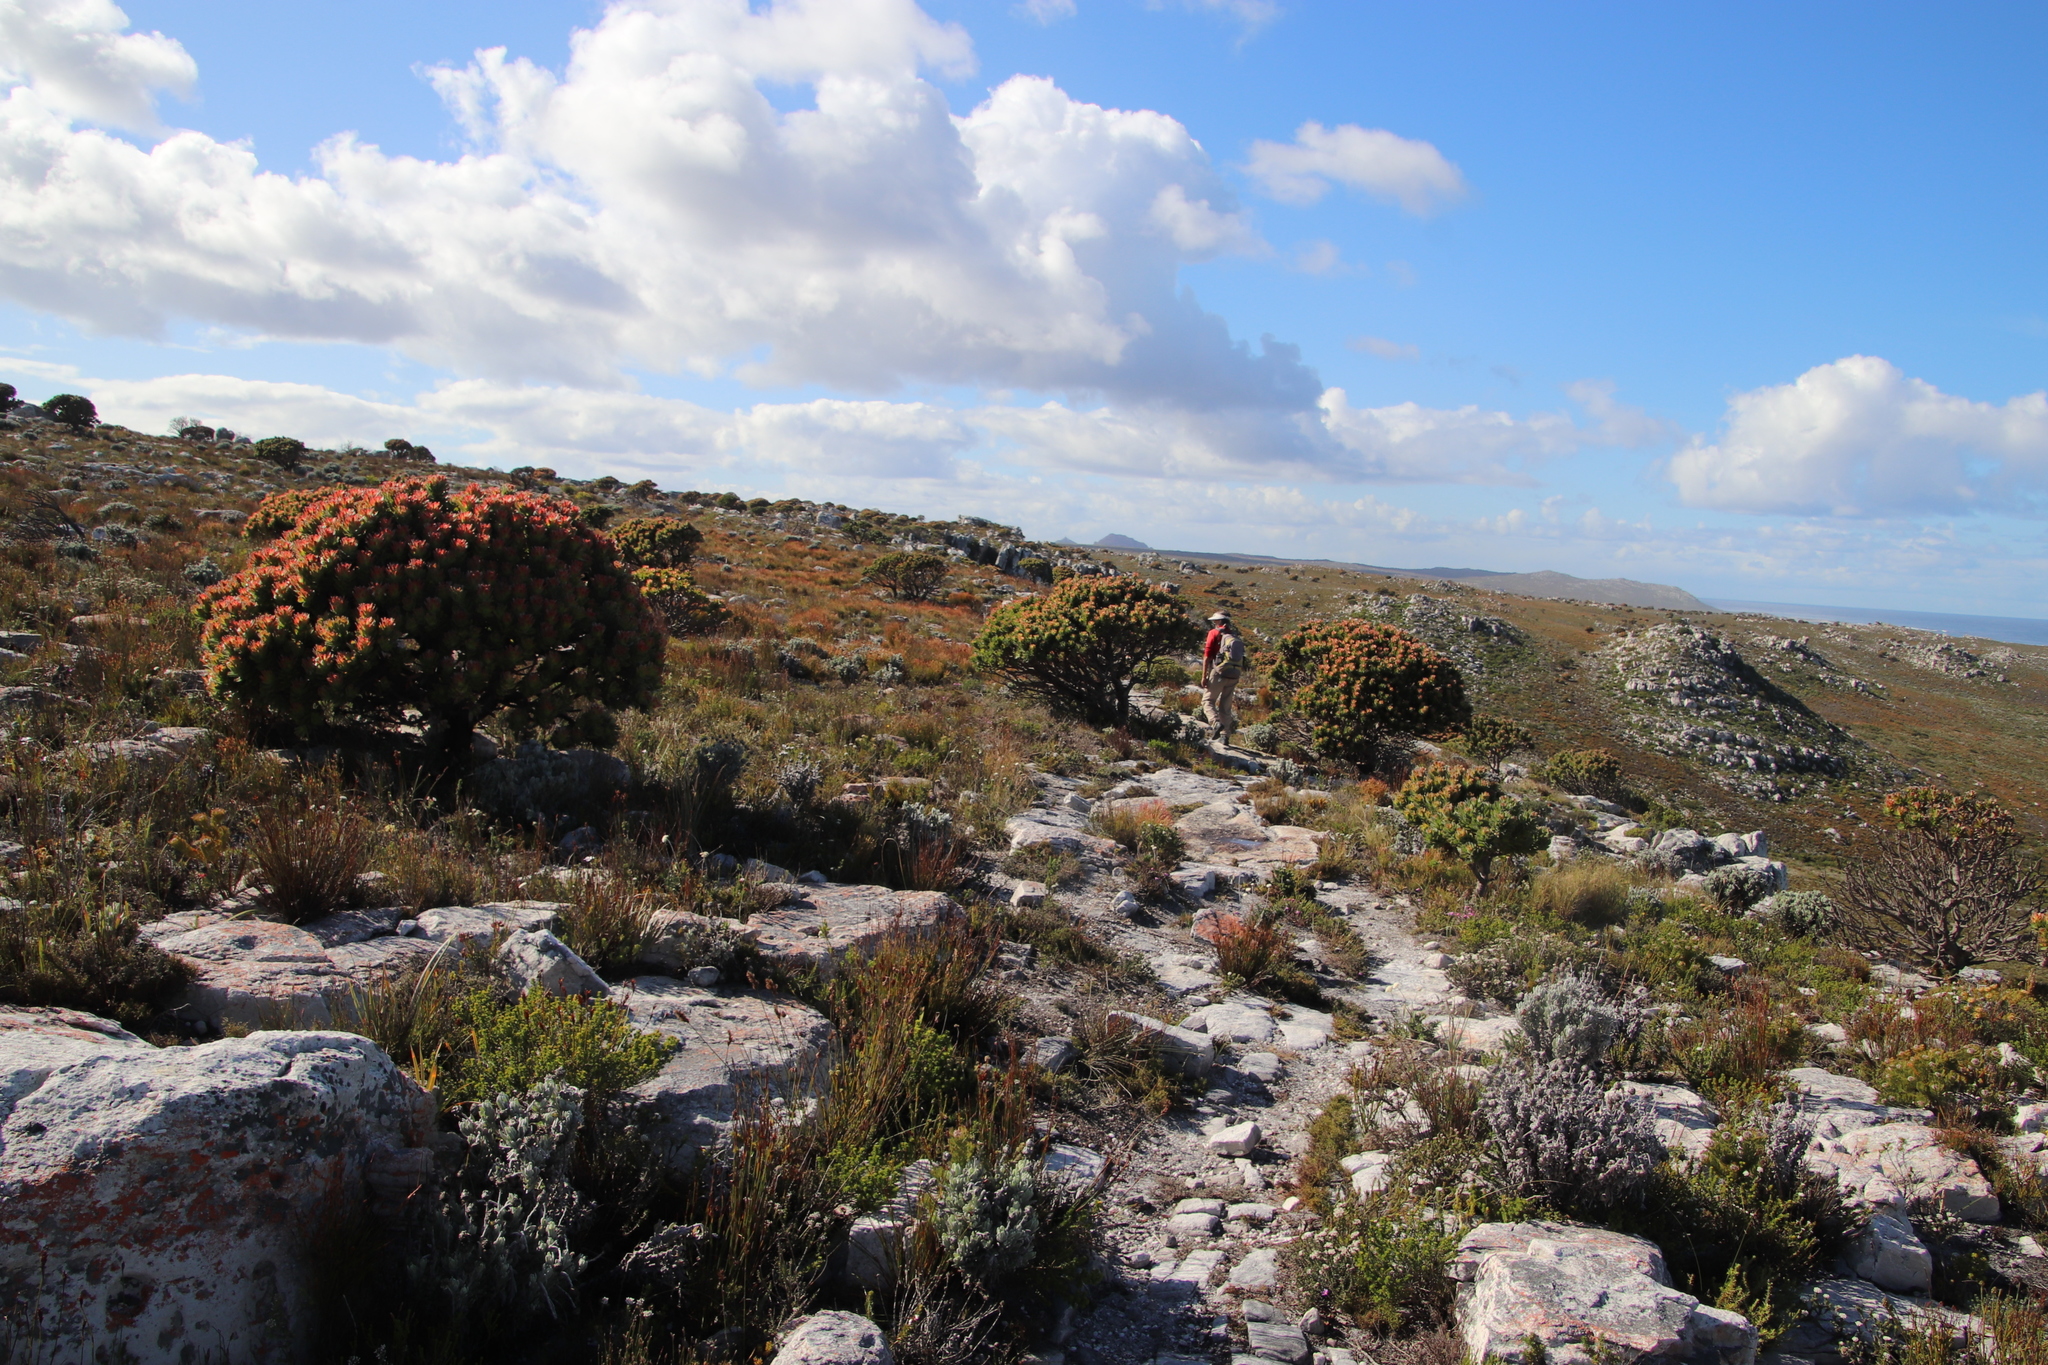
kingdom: Plantae
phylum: Tracheophyta
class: Magnoliopsida
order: Proteales
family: Proteaceae
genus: Mimetes
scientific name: Mimetes fimbriifolius
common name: Fringed bottlebrush
